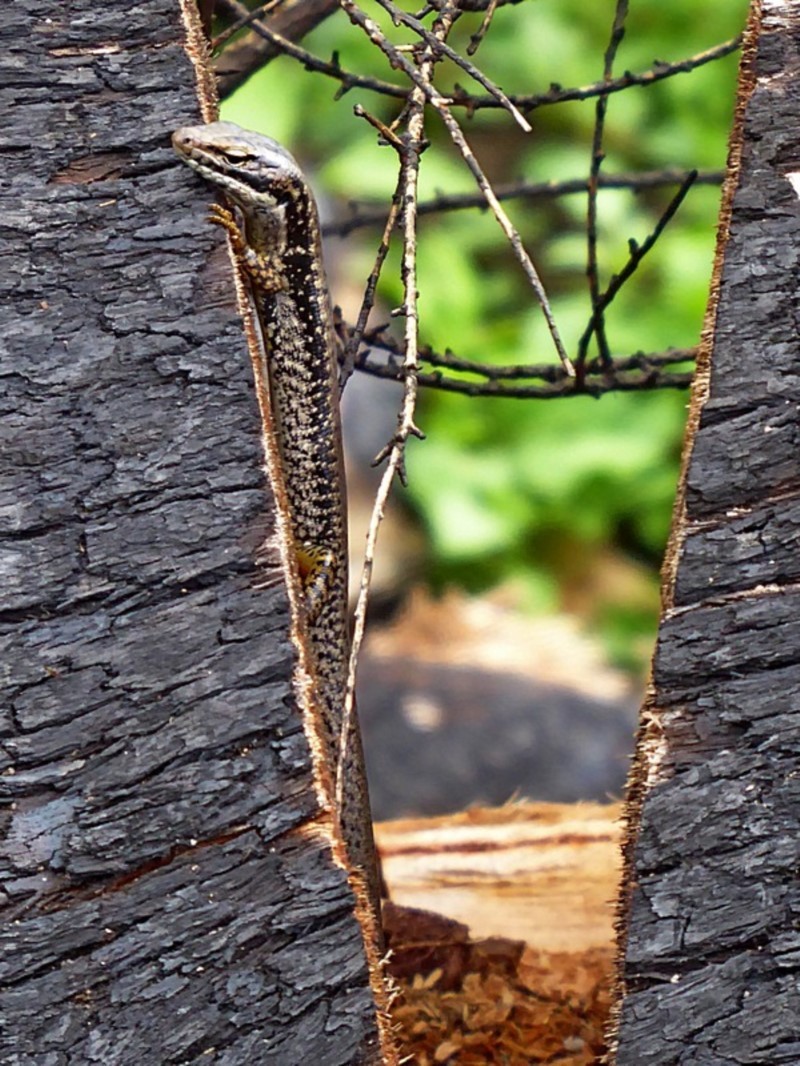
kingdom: Animalia
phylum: Chordata
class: Squamata
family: Scincidae
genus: Eulamprus
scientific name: Eulamprus heatwolei
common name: Warm-temperate water-skink
